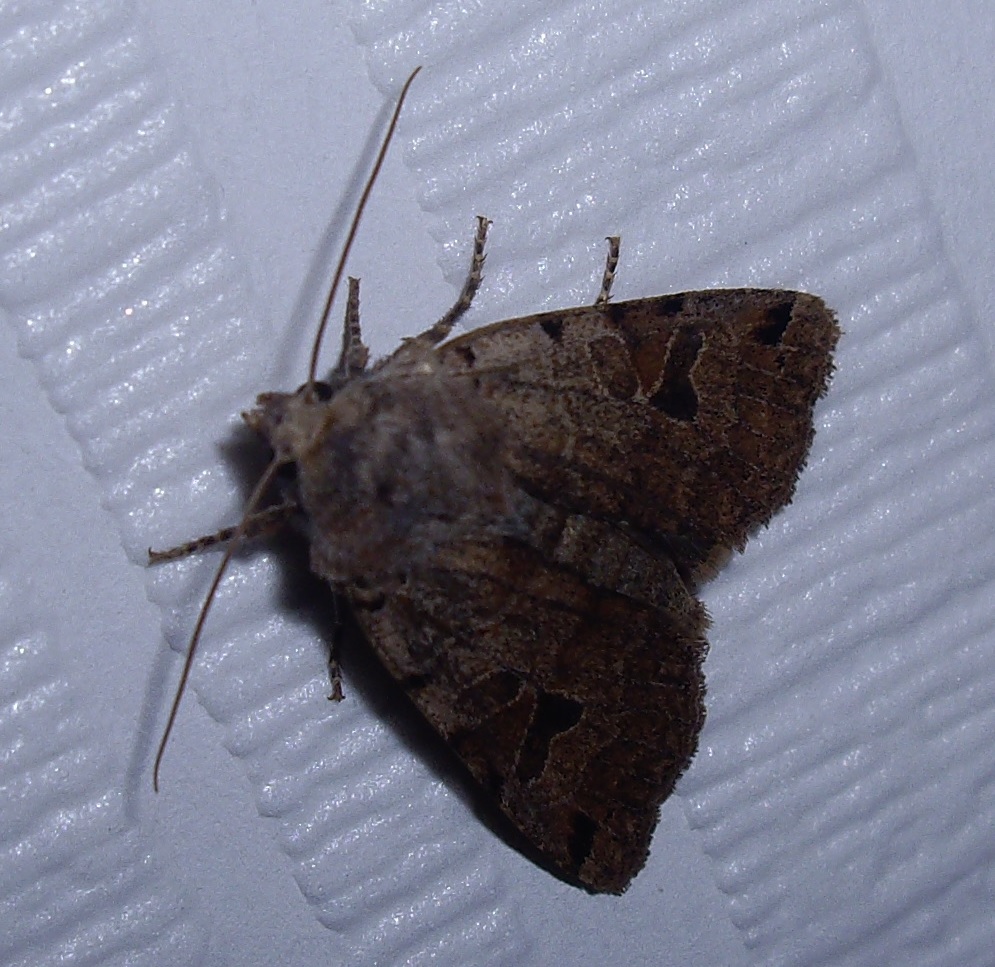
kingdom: Animalia
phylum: Arthropoda
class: Insecta
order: Lepidoptera
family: Noctuidae
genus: Agrochola
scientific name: Agrochola litura
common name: Brown-spot pinion
